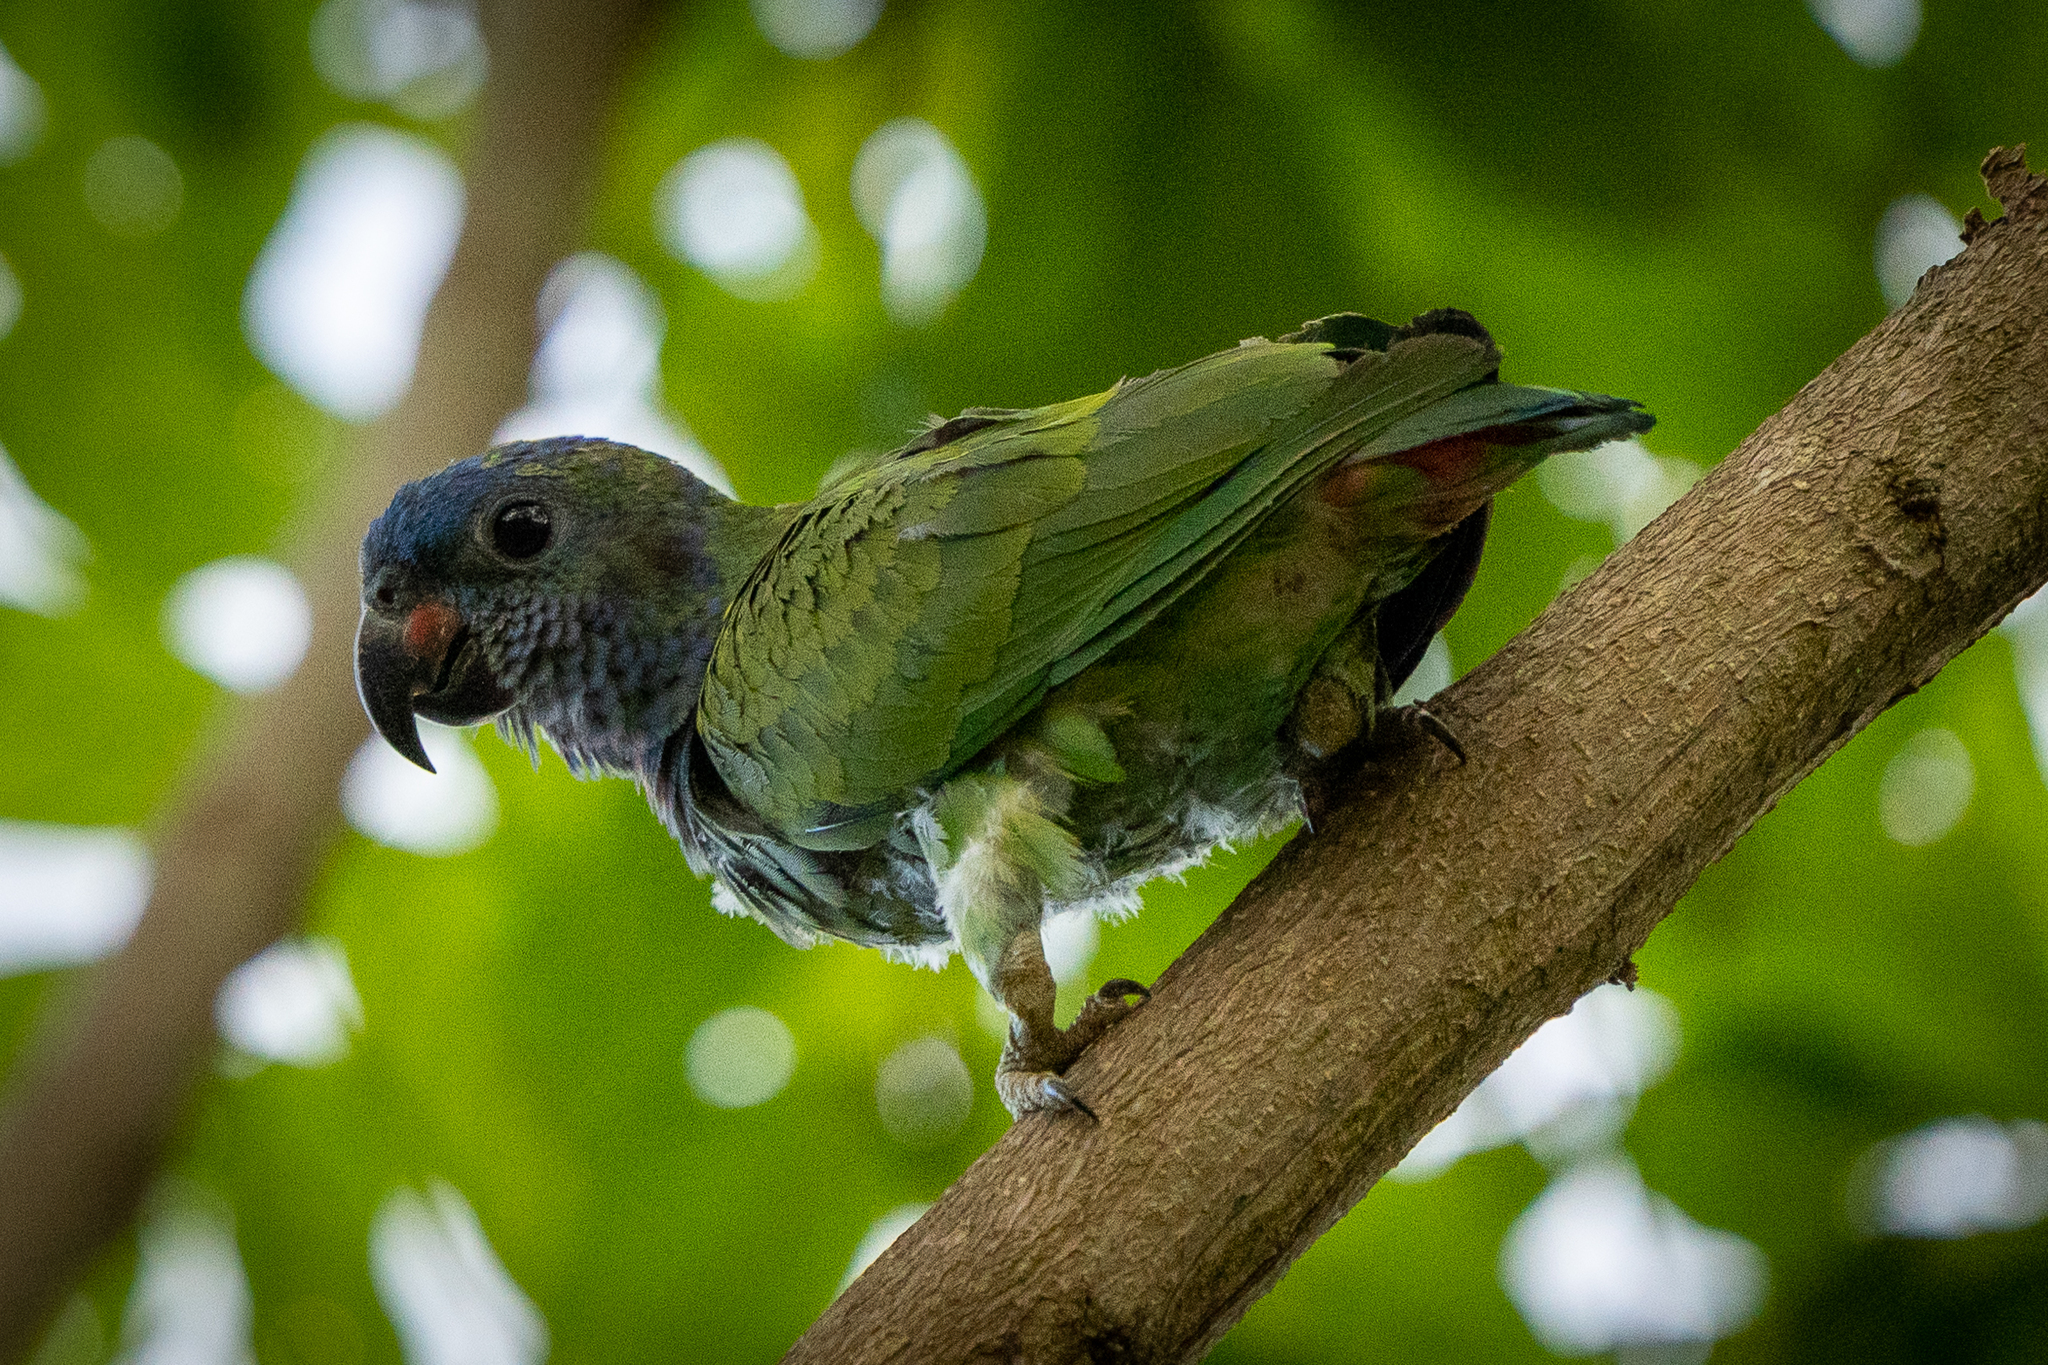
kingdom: Animalia
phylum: Chordata
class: Aves
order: Psittaciformes
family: Psittacidae
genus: Pionus
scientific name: Pionus menstruus
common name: Blue-headed parrot
